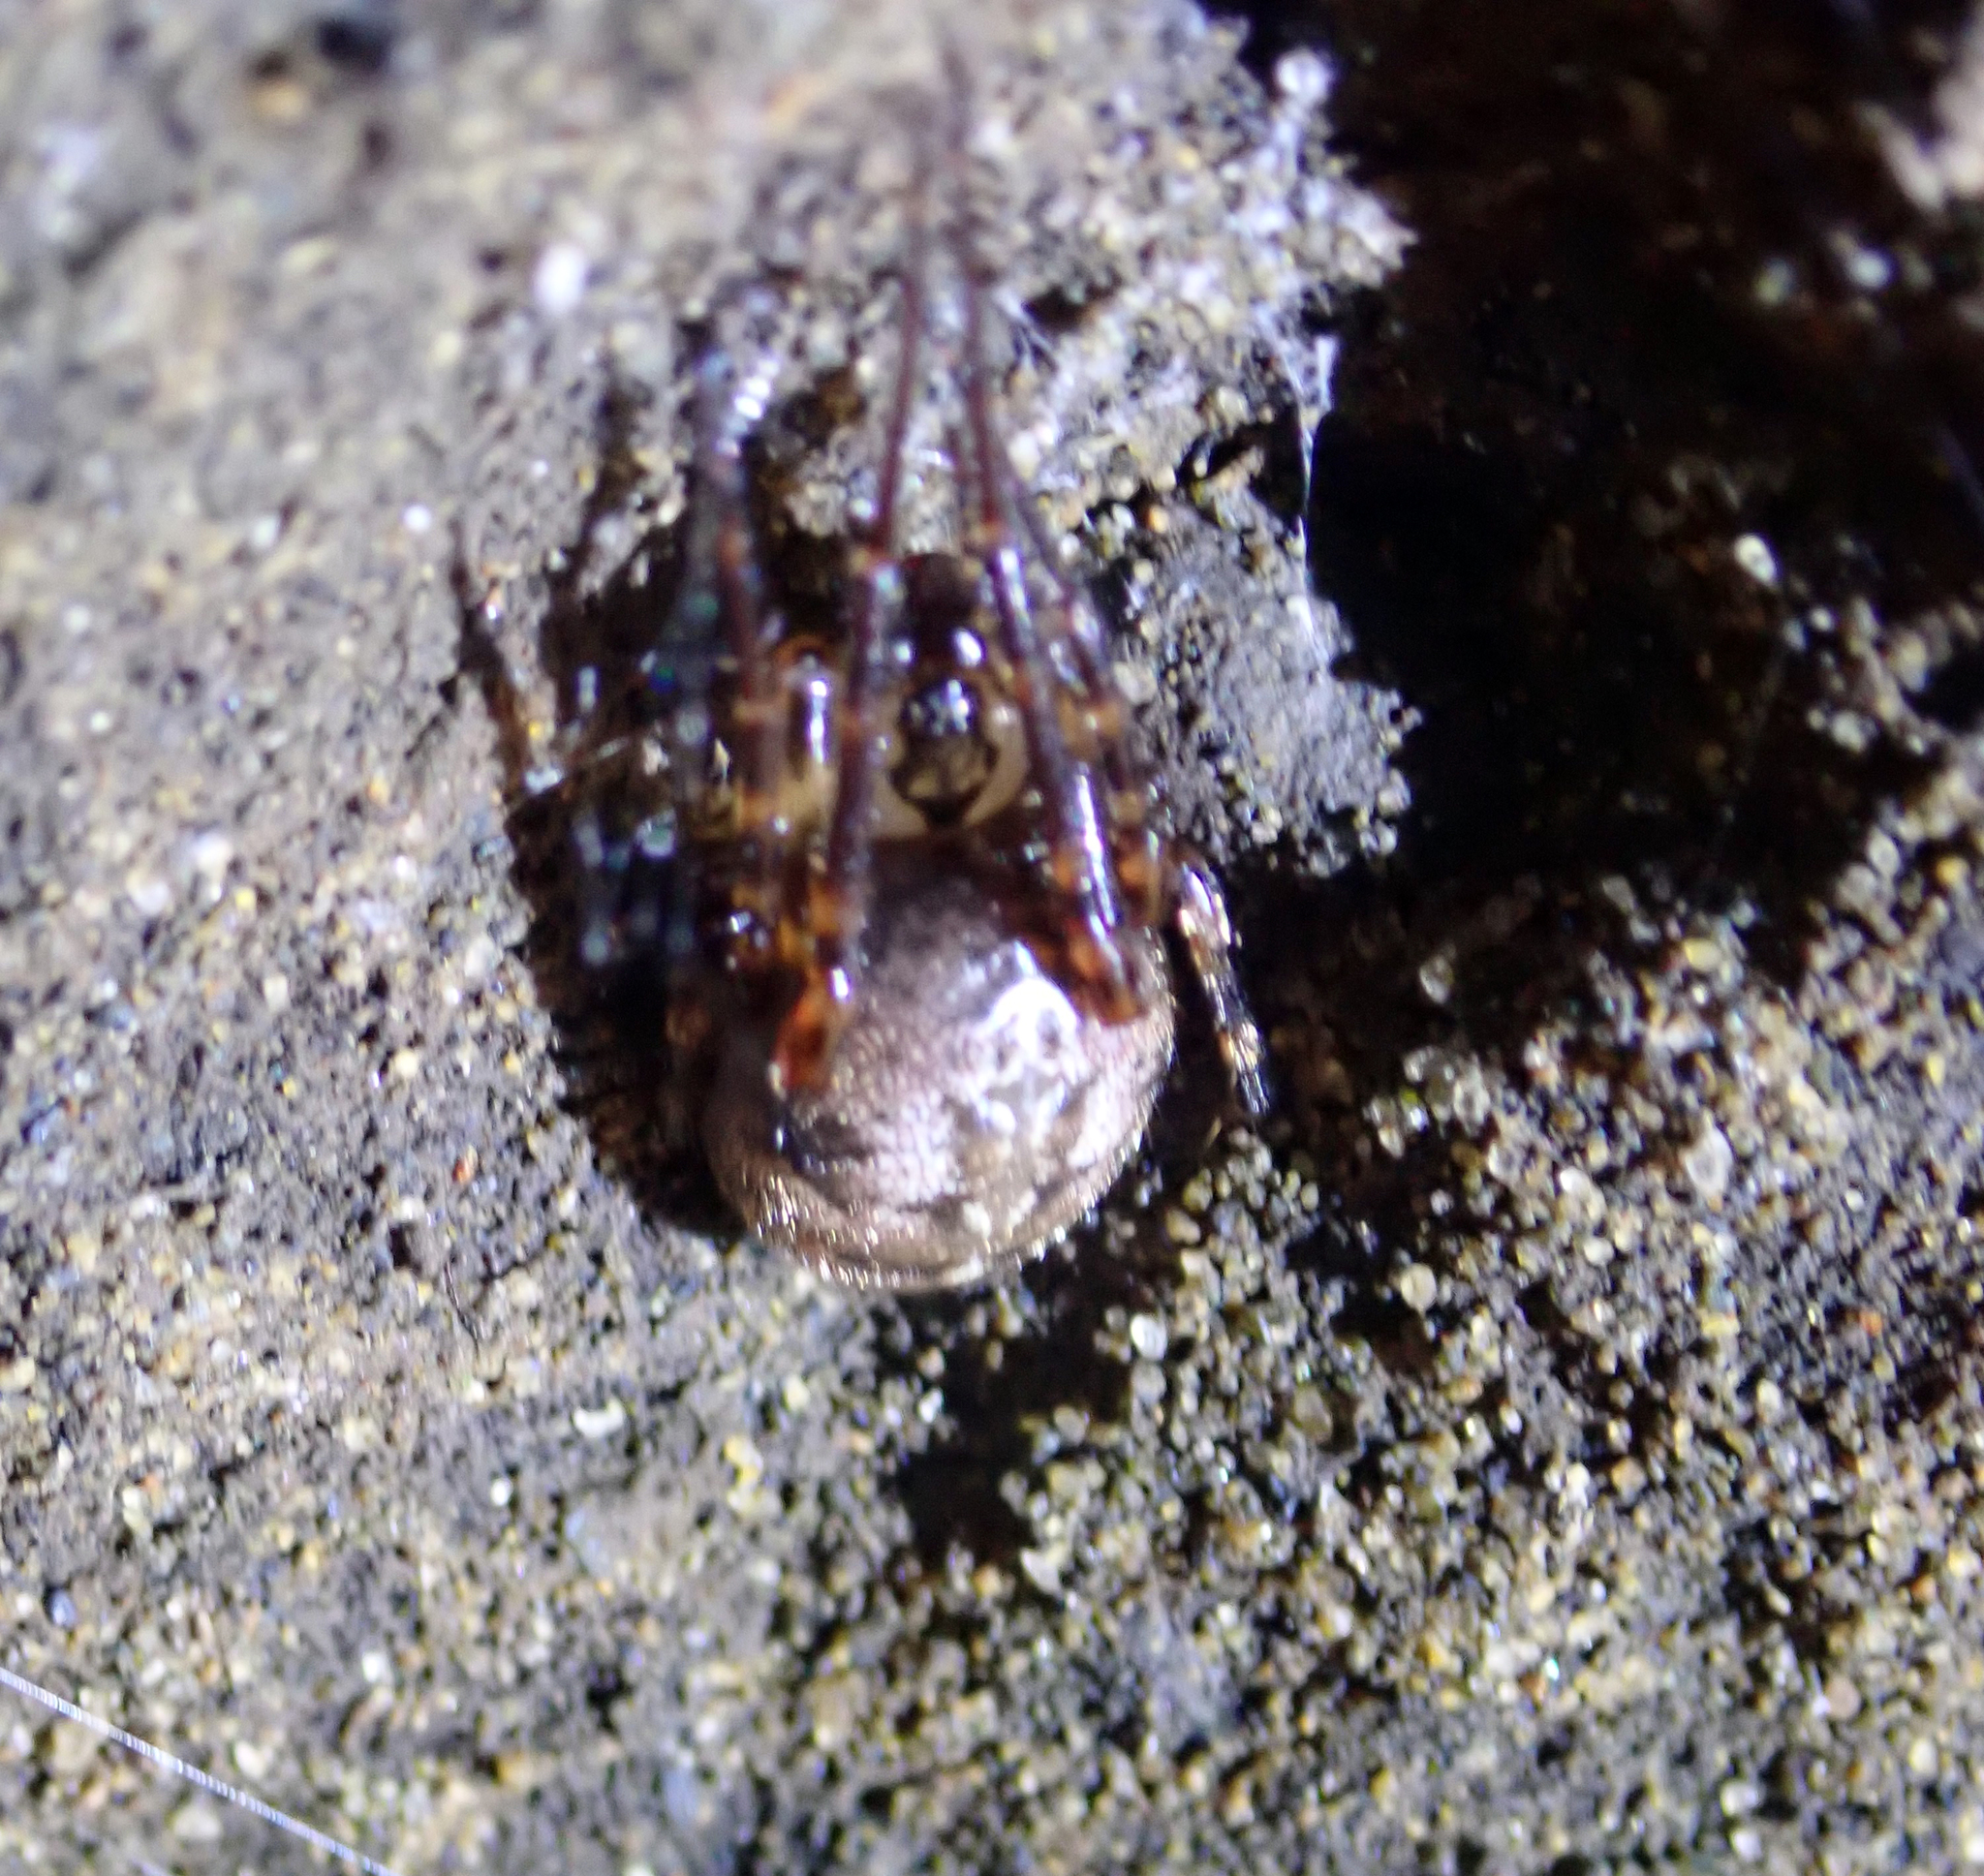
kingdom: Animalia
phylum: Arthropoda
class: Arachnida
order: Araneae
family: Tetragnathidae
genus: Tawhai
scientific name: Tawhai arborea
